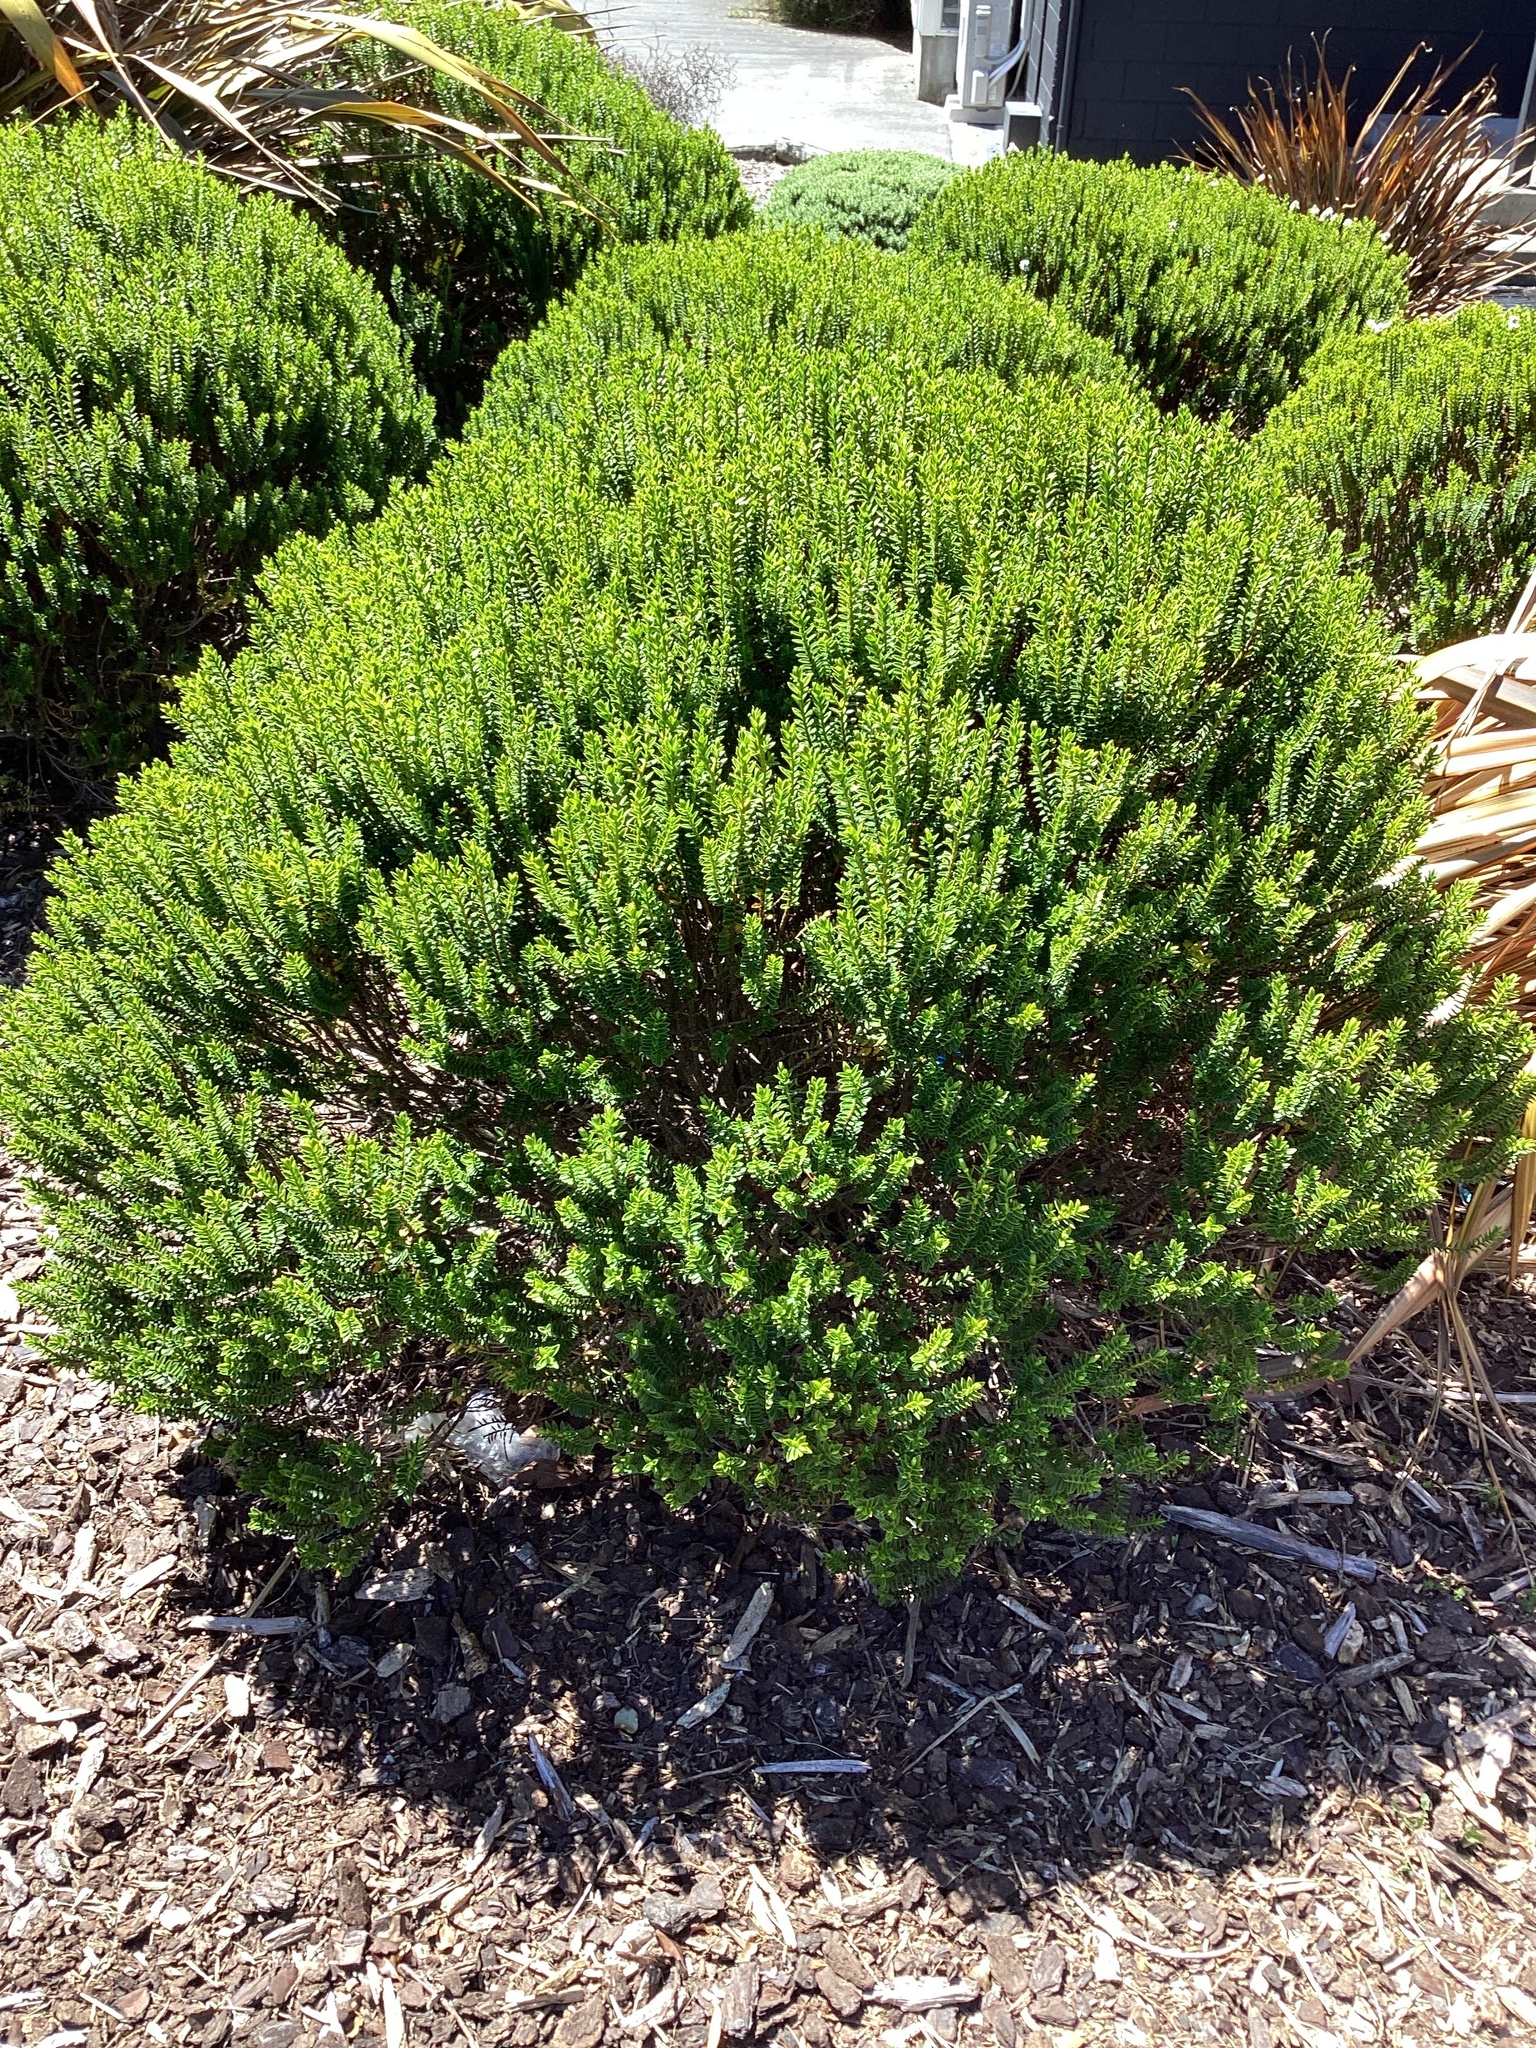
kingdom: Plantae
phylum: Tracheophyta
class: Magnoliopsida
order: Lamiales
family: Plantaginaceae
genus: Veronica
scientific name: Veronica odora
